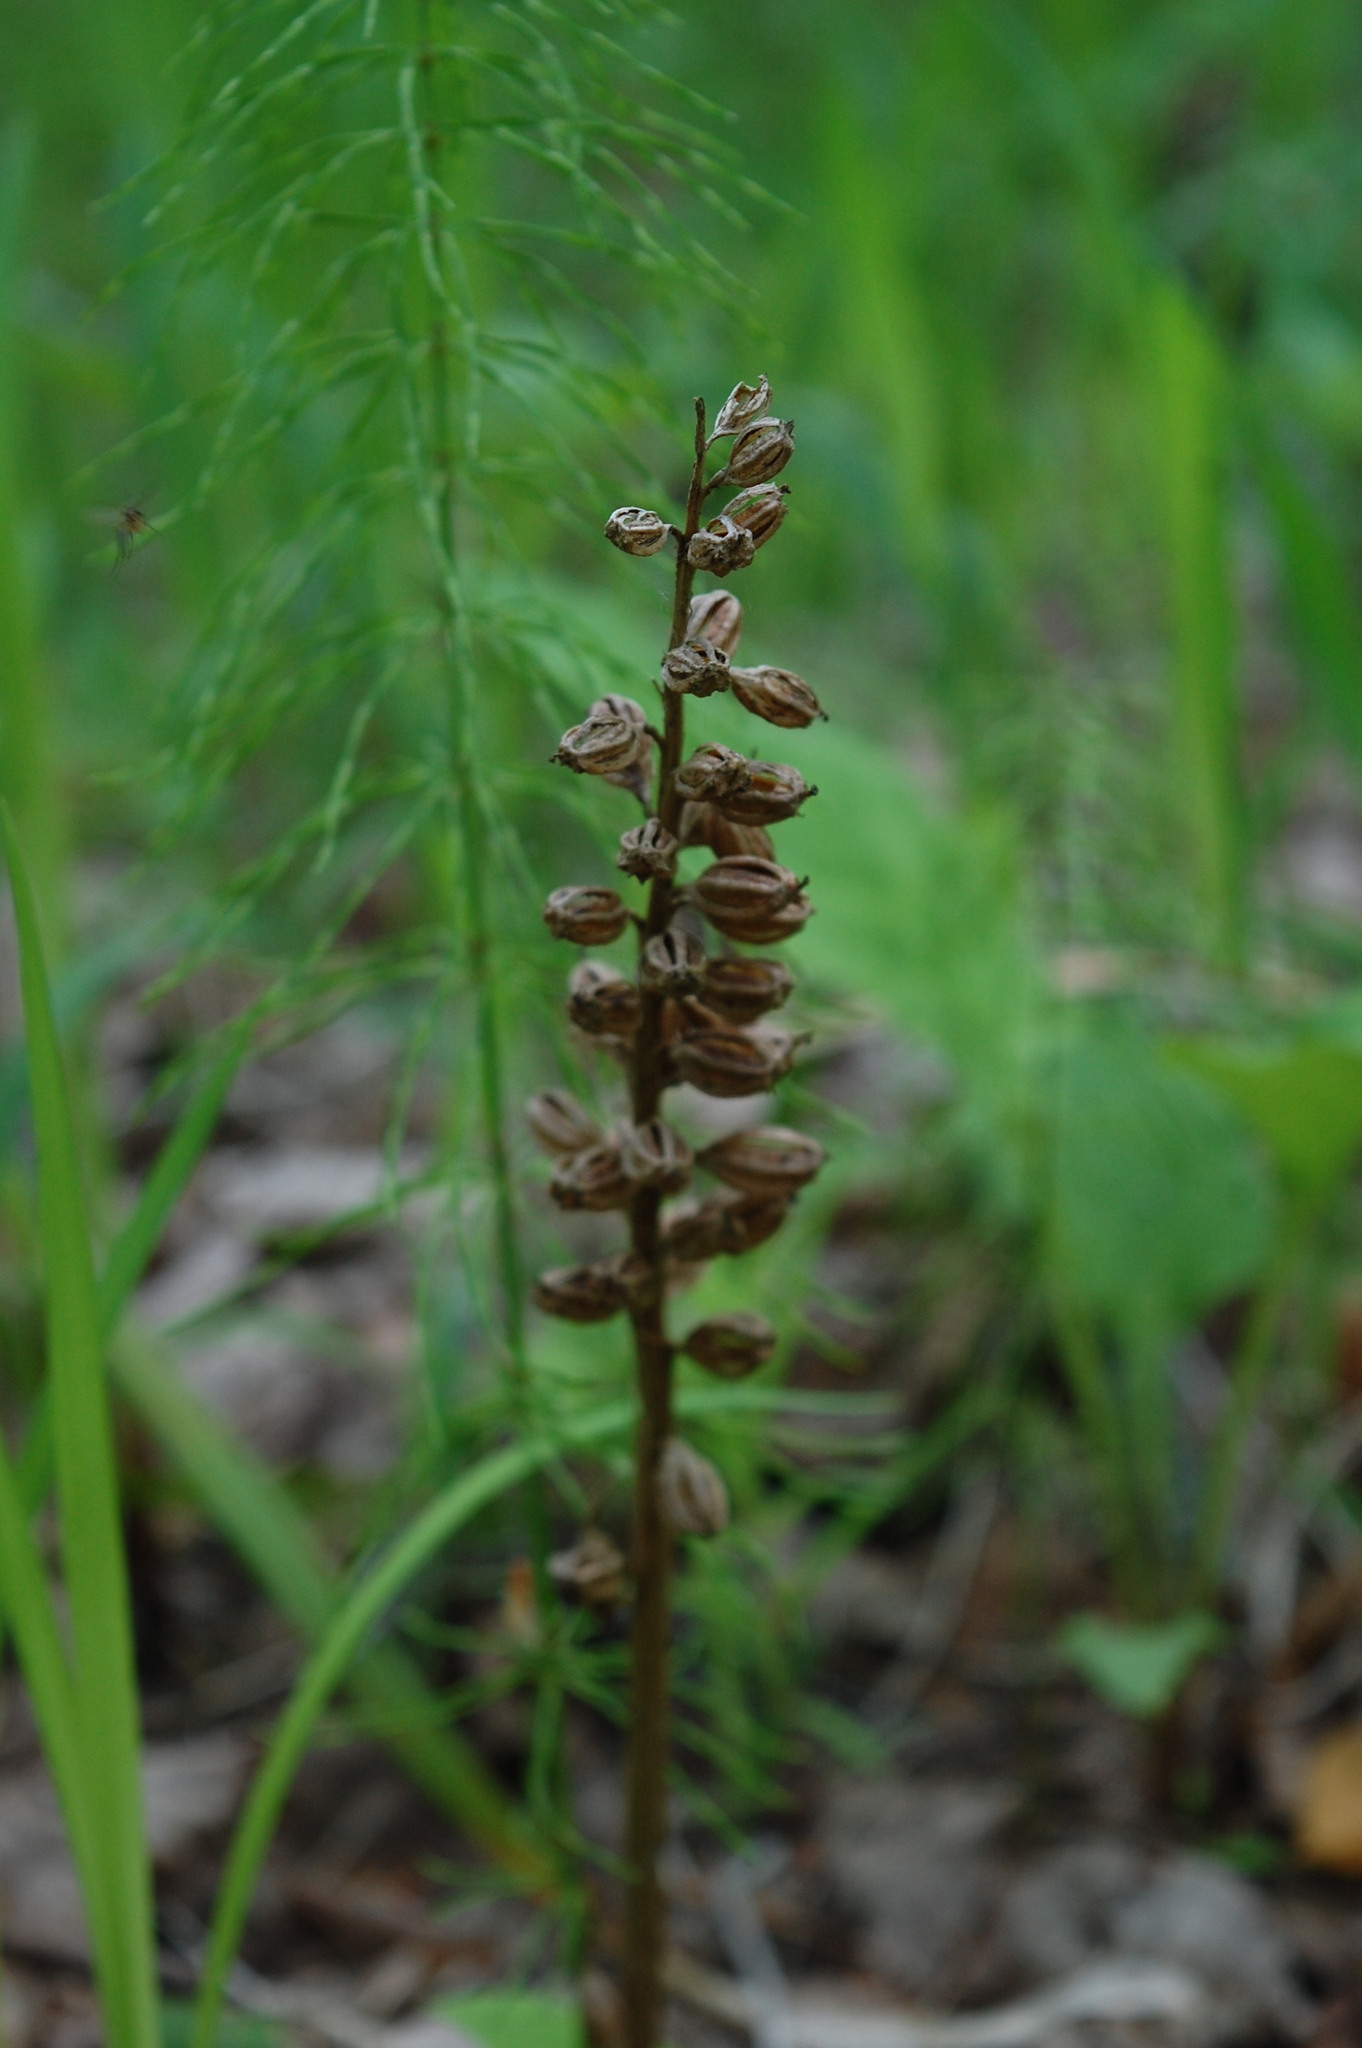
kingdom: Plantae
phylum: Tracheophyta
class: Liliopsida
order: Asparagales
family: Orchidaceae
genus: Neottia
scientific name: Neottia nidus-avis
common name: Bird's-nest orchid
